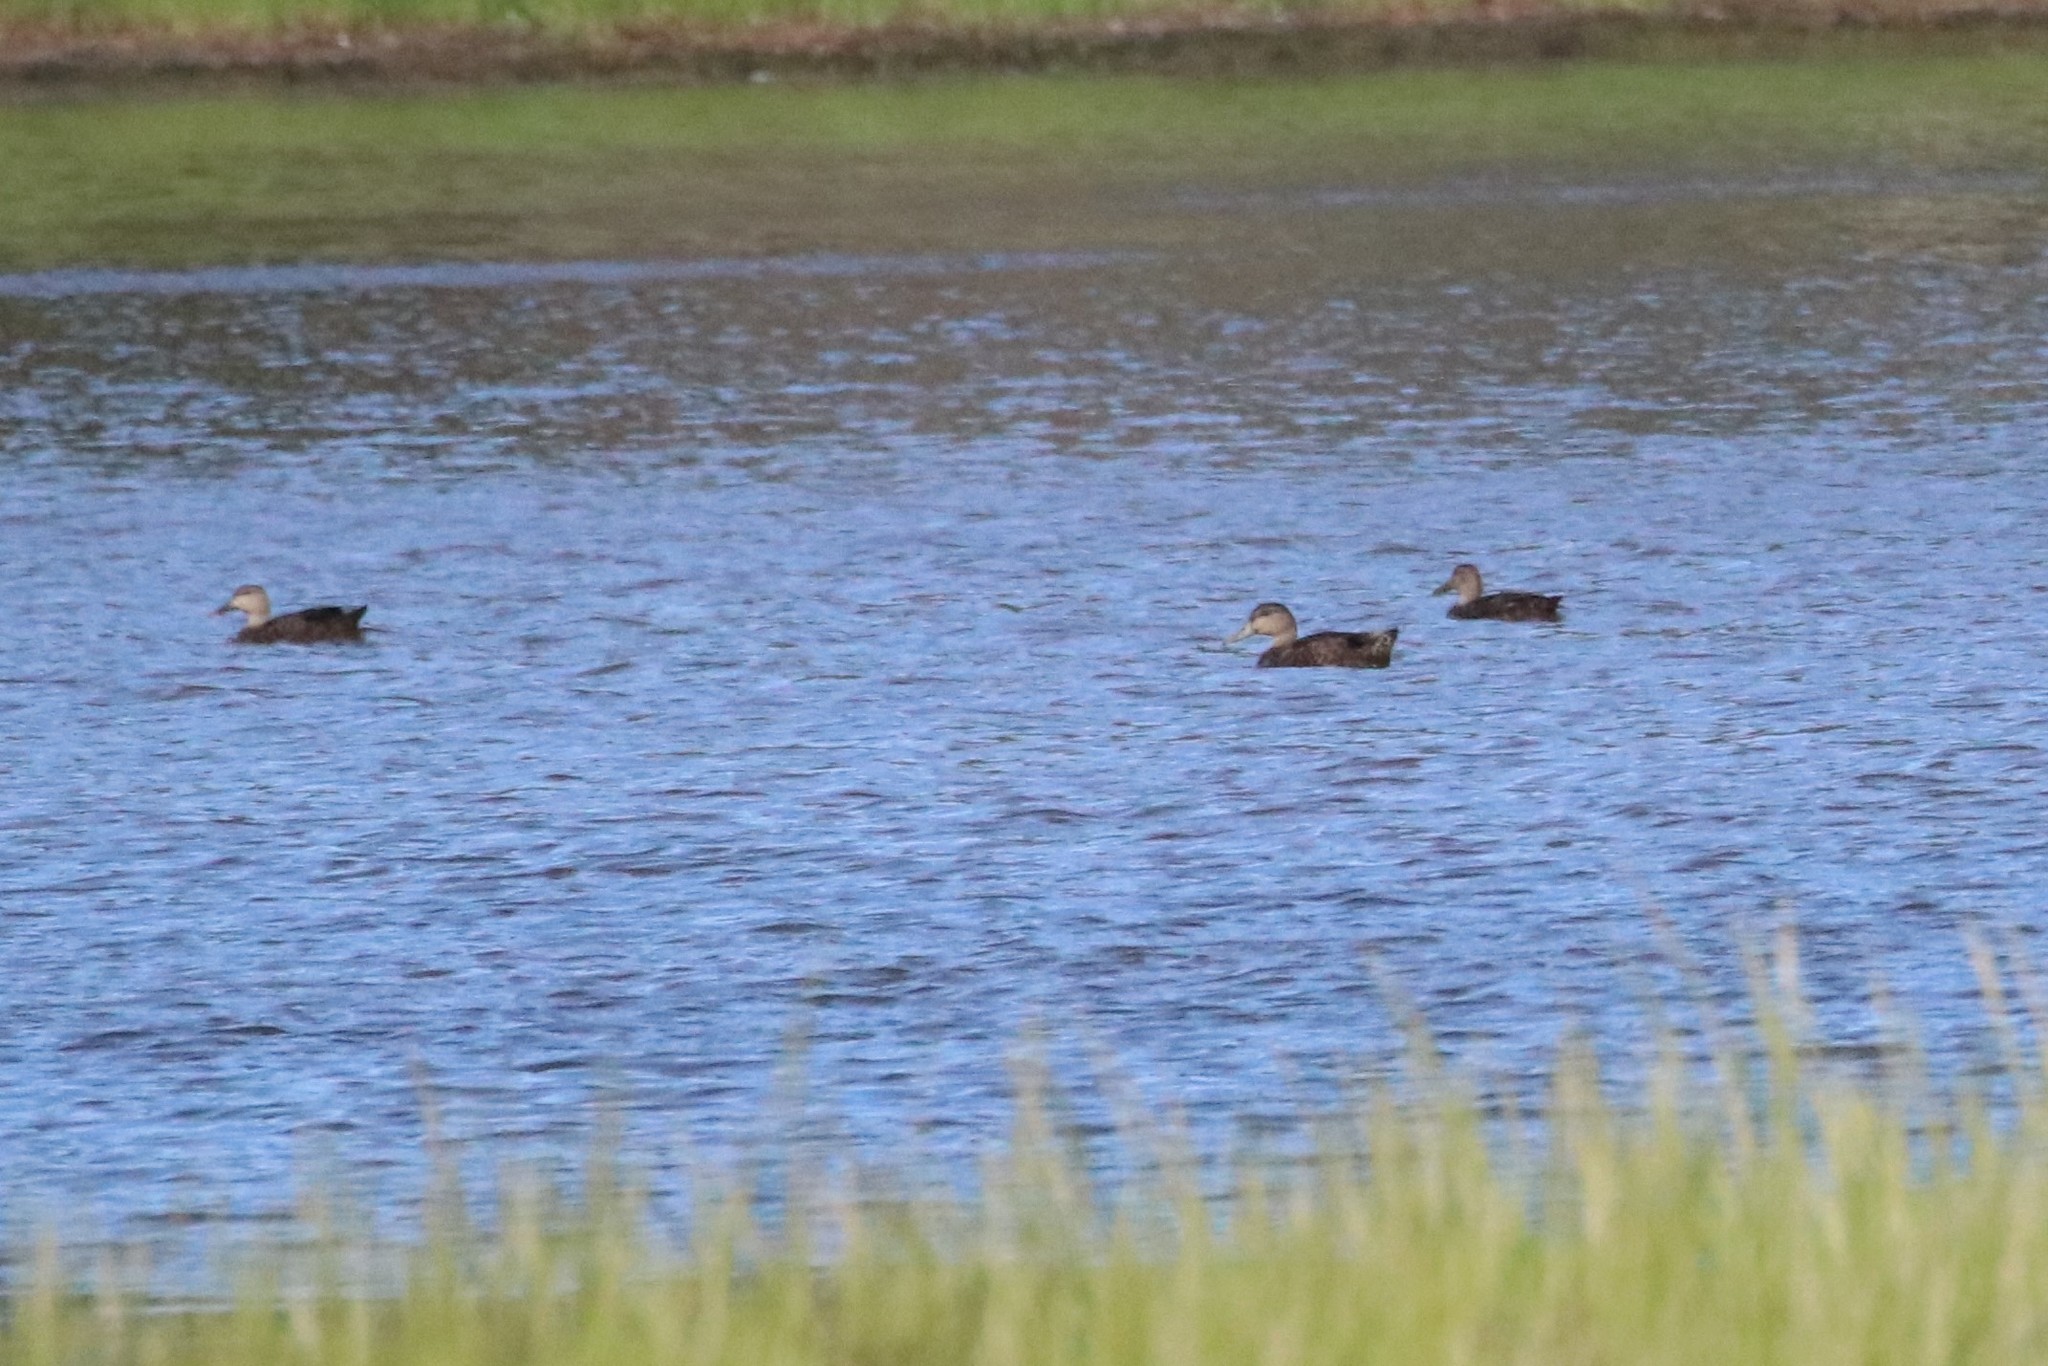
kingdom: Animalia
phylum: Chordata
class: Aves
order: Anseriformes
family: Anatidae
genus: Anas
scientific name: Anas rubripes
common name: American black duck
